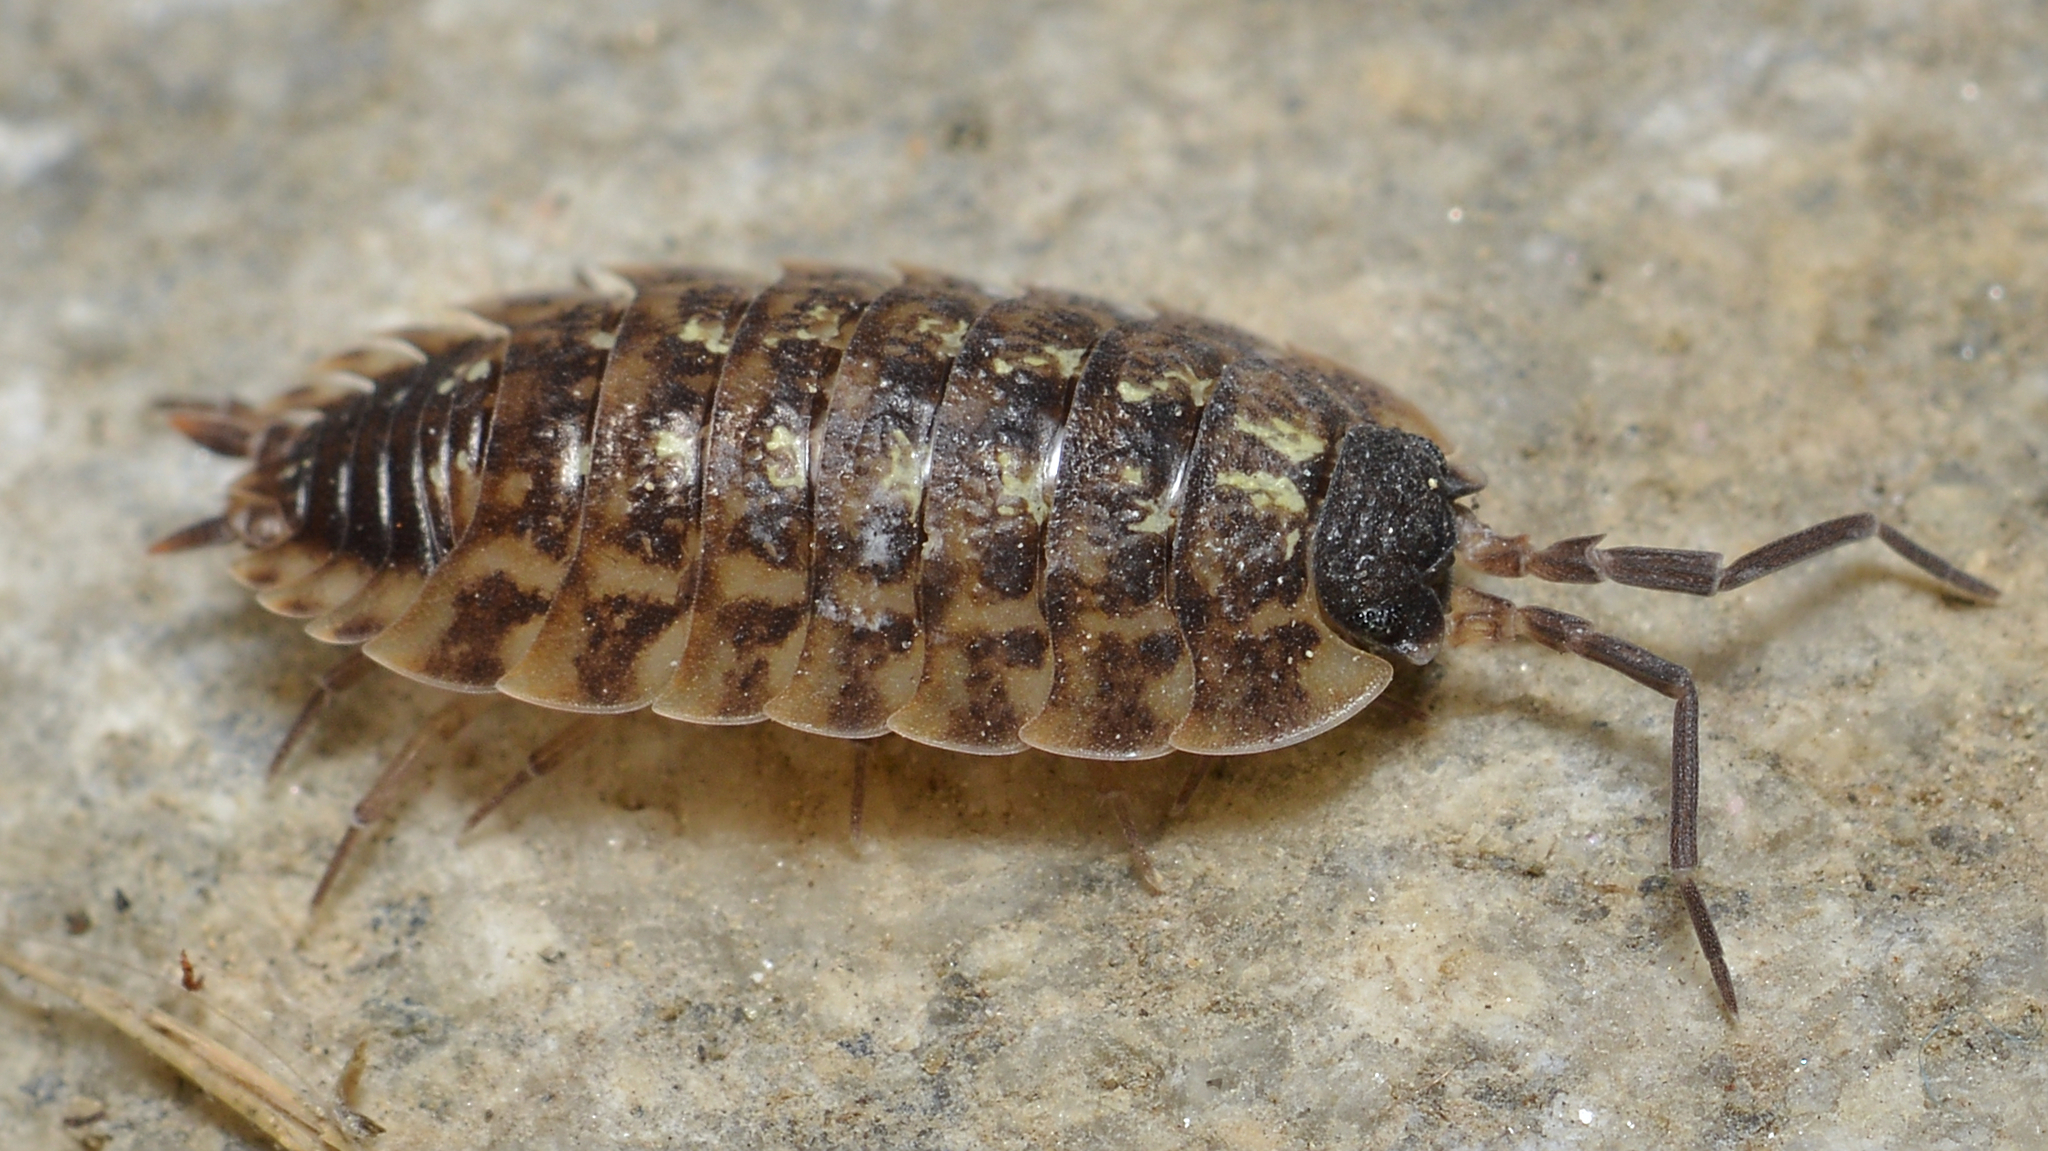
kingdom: Animalia
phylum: Arthropoda
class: Malacostraca
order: Isopoda
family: Porcellionidae
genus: Porcellio
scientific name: Porcellio spinicornis
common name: Painted woodlouse
